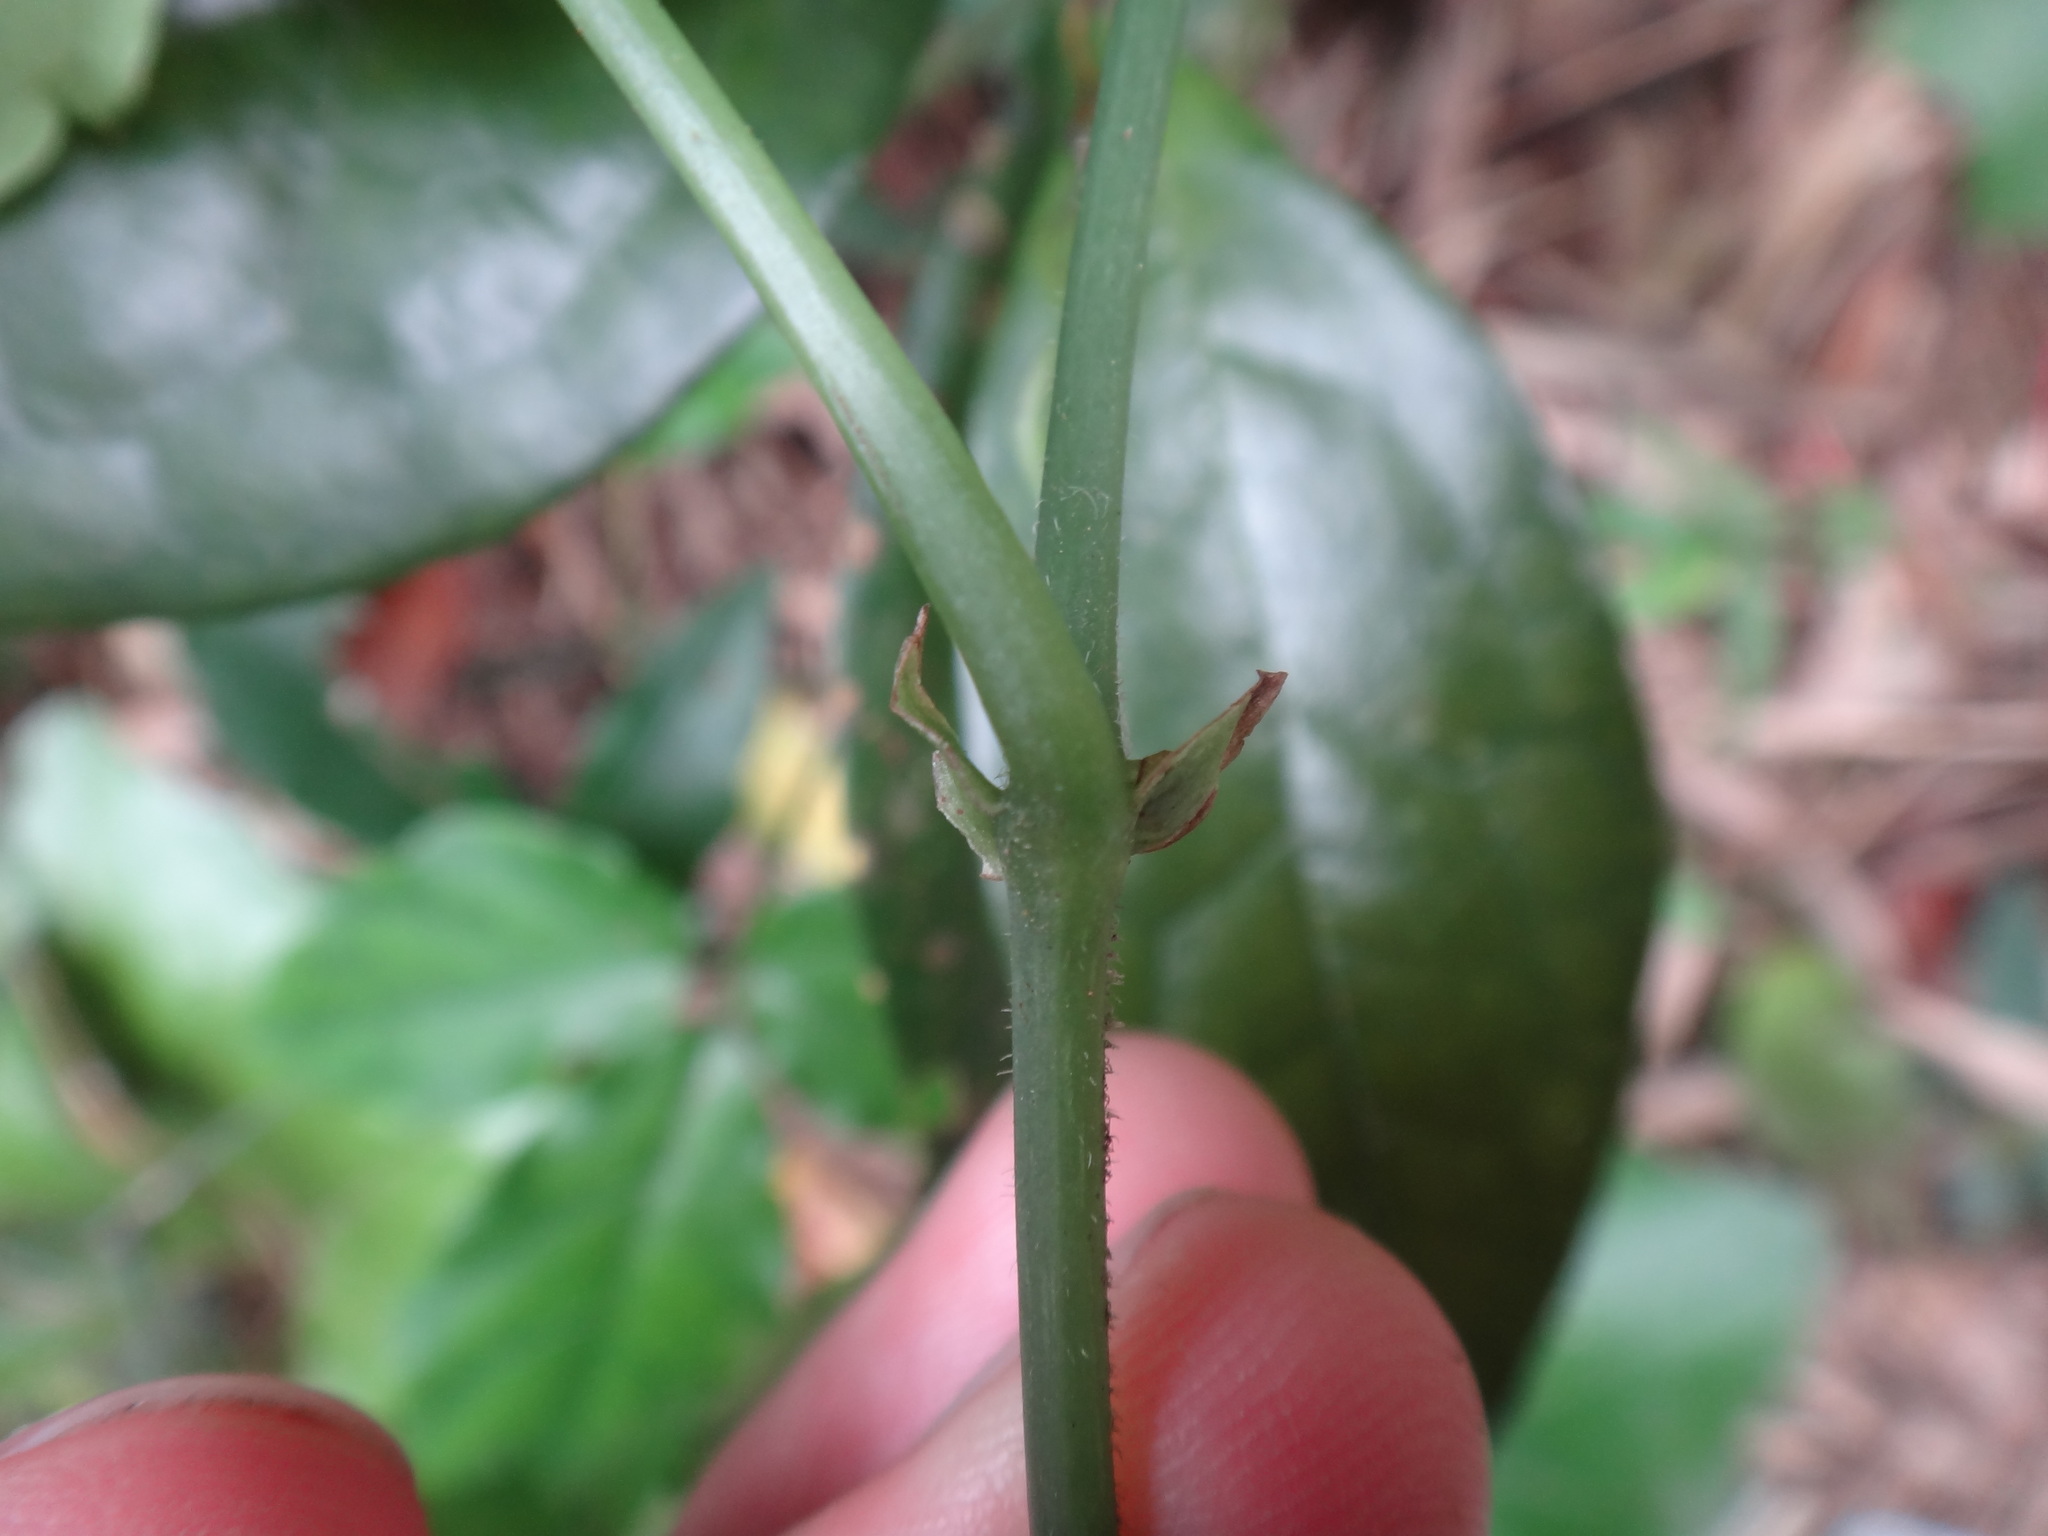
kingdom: Plantae
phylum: Tracheophyta
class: Magnoliopsida
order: Vitales
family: Vitaceae
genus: Tetrastigma
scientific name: Tetrastigma hemsleyanum
